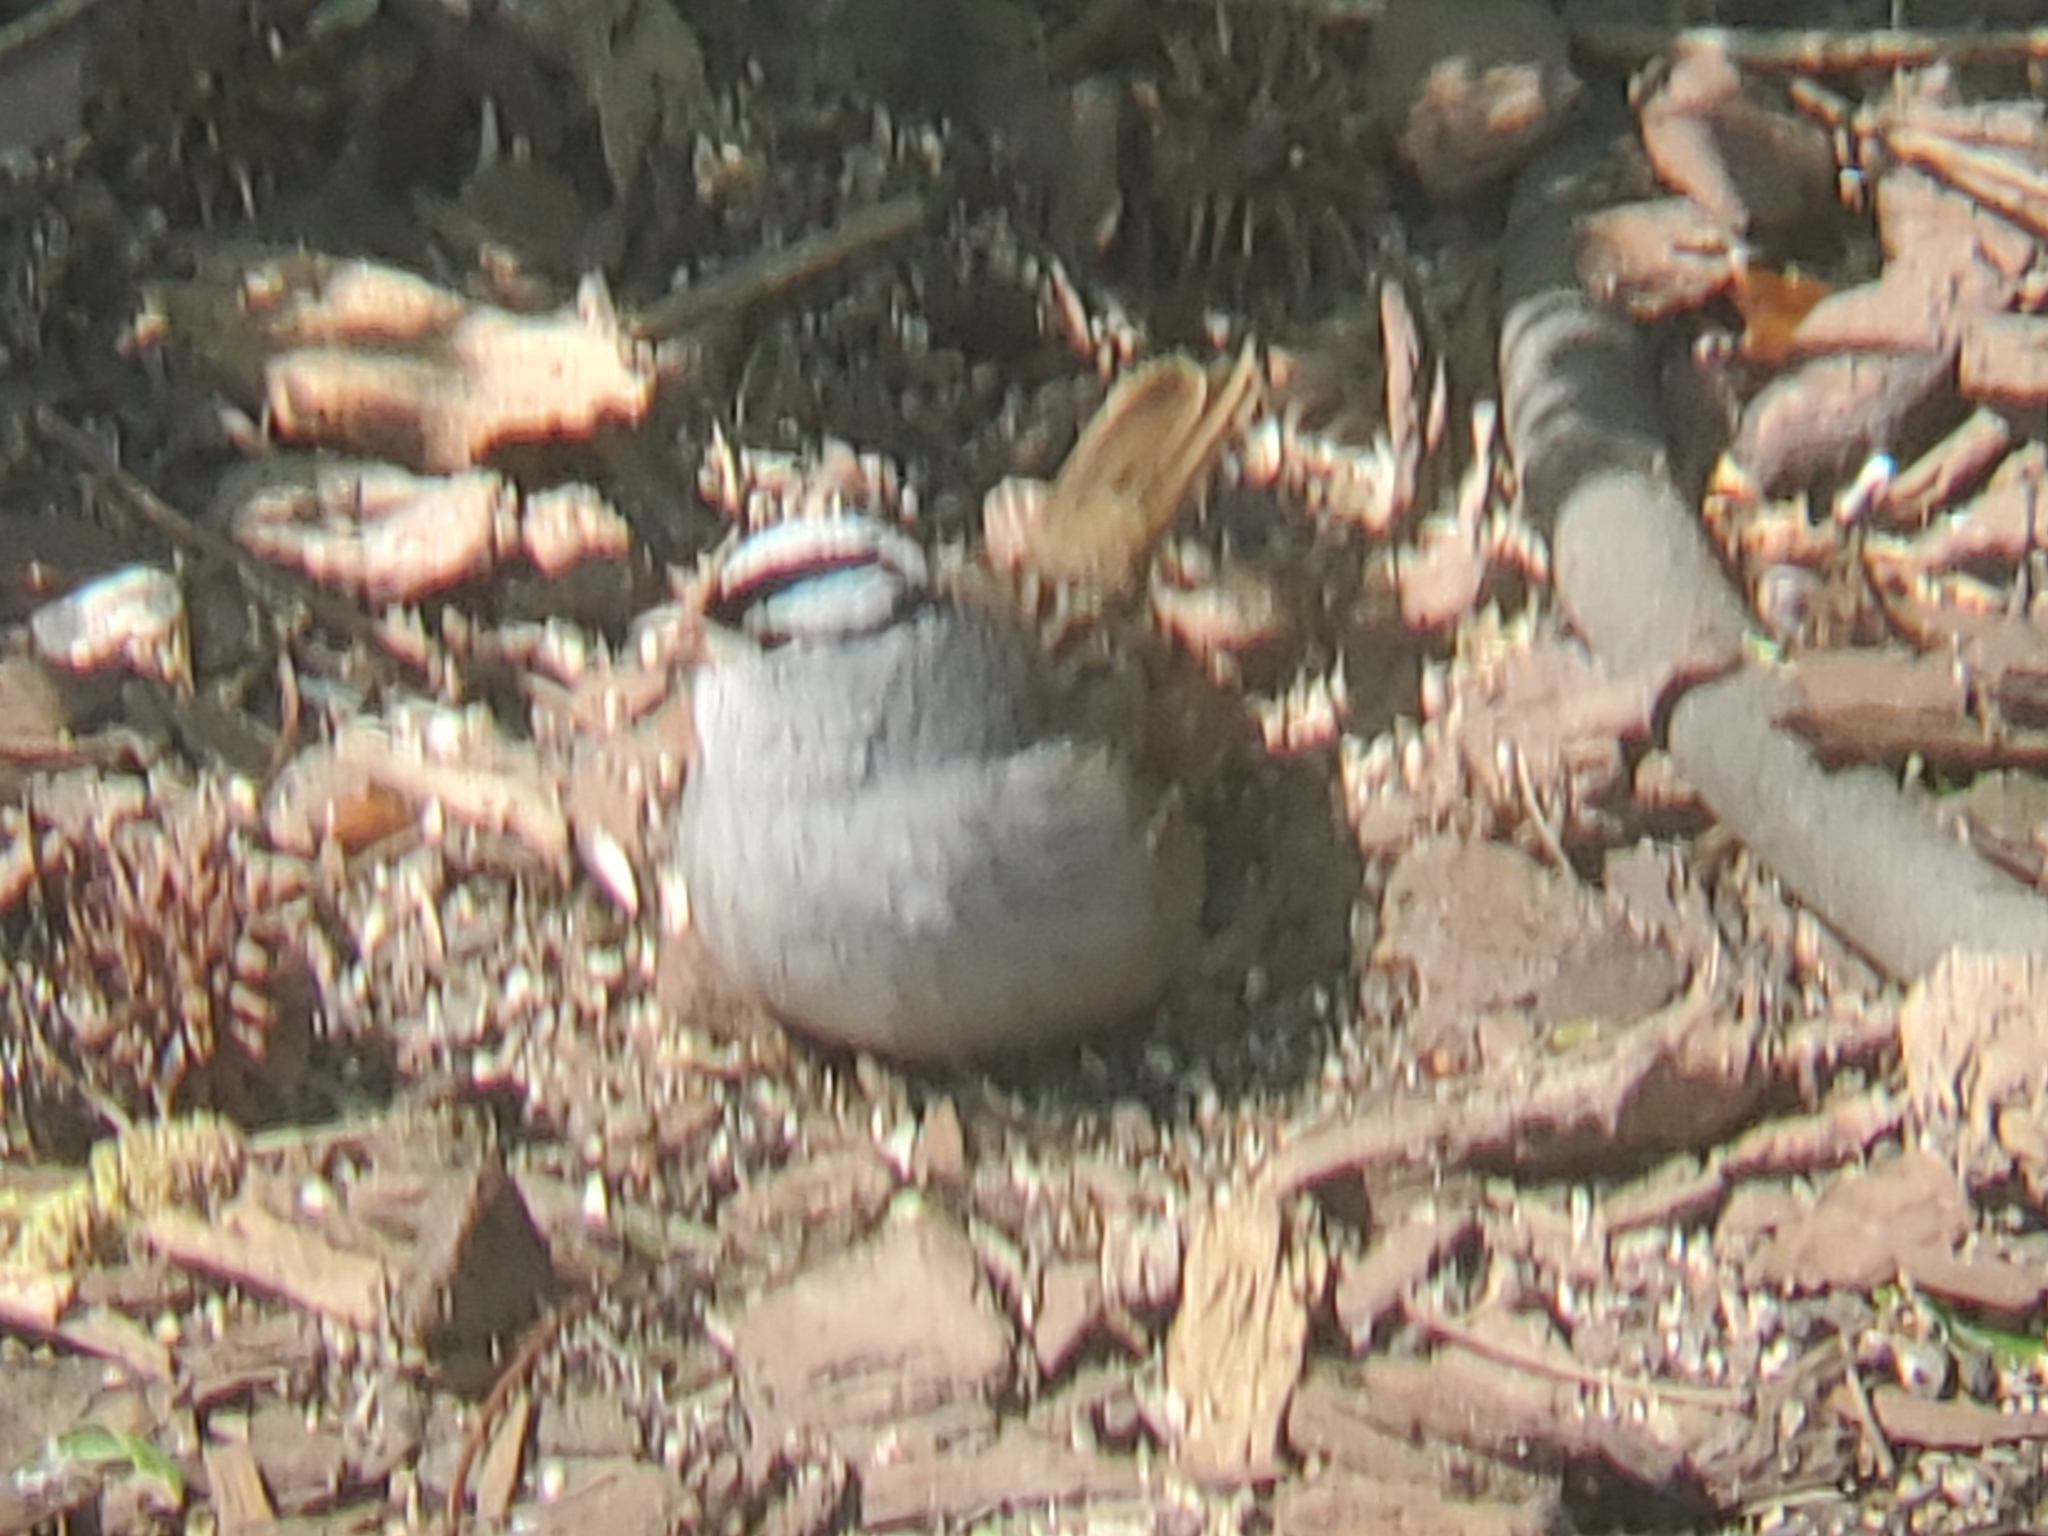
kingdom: Animalia
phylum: Chordata
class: Aves
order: Passeriformes
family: Passerellidae
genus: Zonotrichia
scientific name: Zonotrichia leucophrys
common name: White-crowned sparrow
